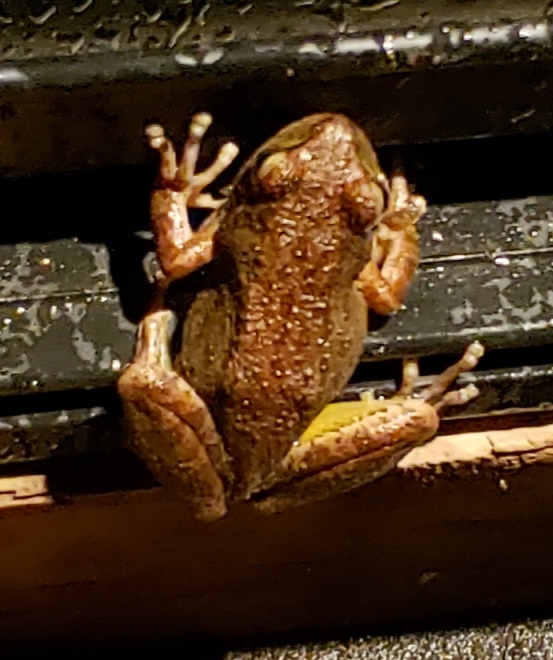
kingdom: Animalia
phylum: Chordata
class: Amphibia
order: Anura
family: Hylidae
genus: Pseudacris
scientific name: Pseudacris regilla
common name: Pacific chorus frog
